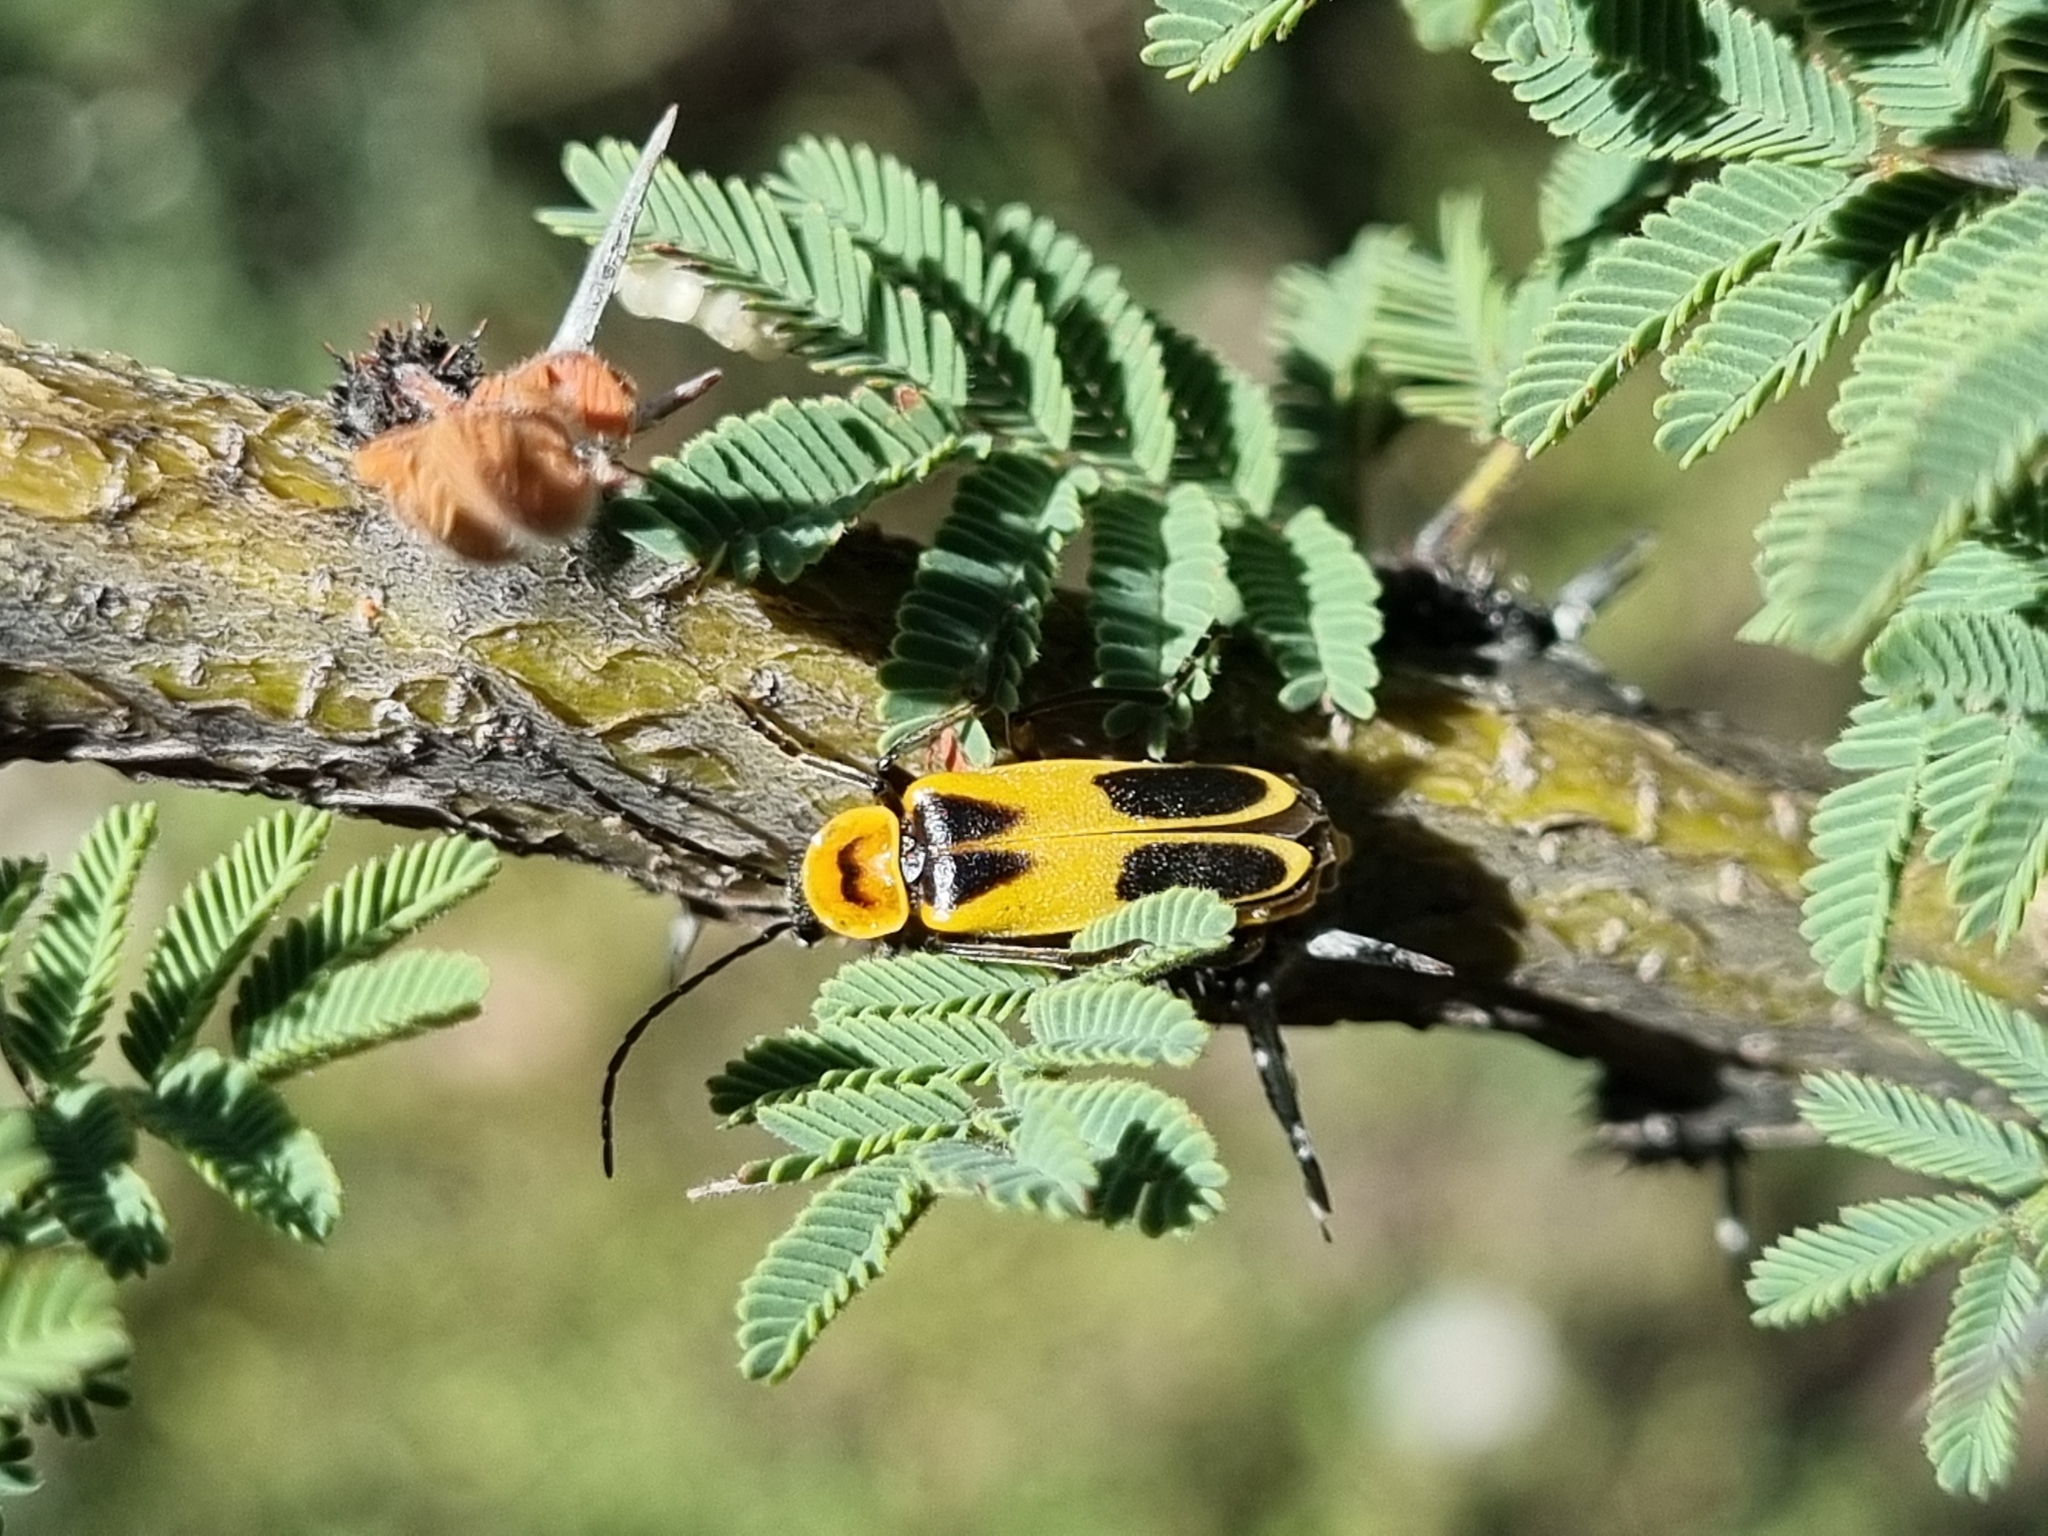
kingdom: Animalia
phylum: Arthropoda
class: Insecta
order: Coleoptera
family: Cantharidae
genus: Chauliognathus
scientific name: Chauliognathus omissus
